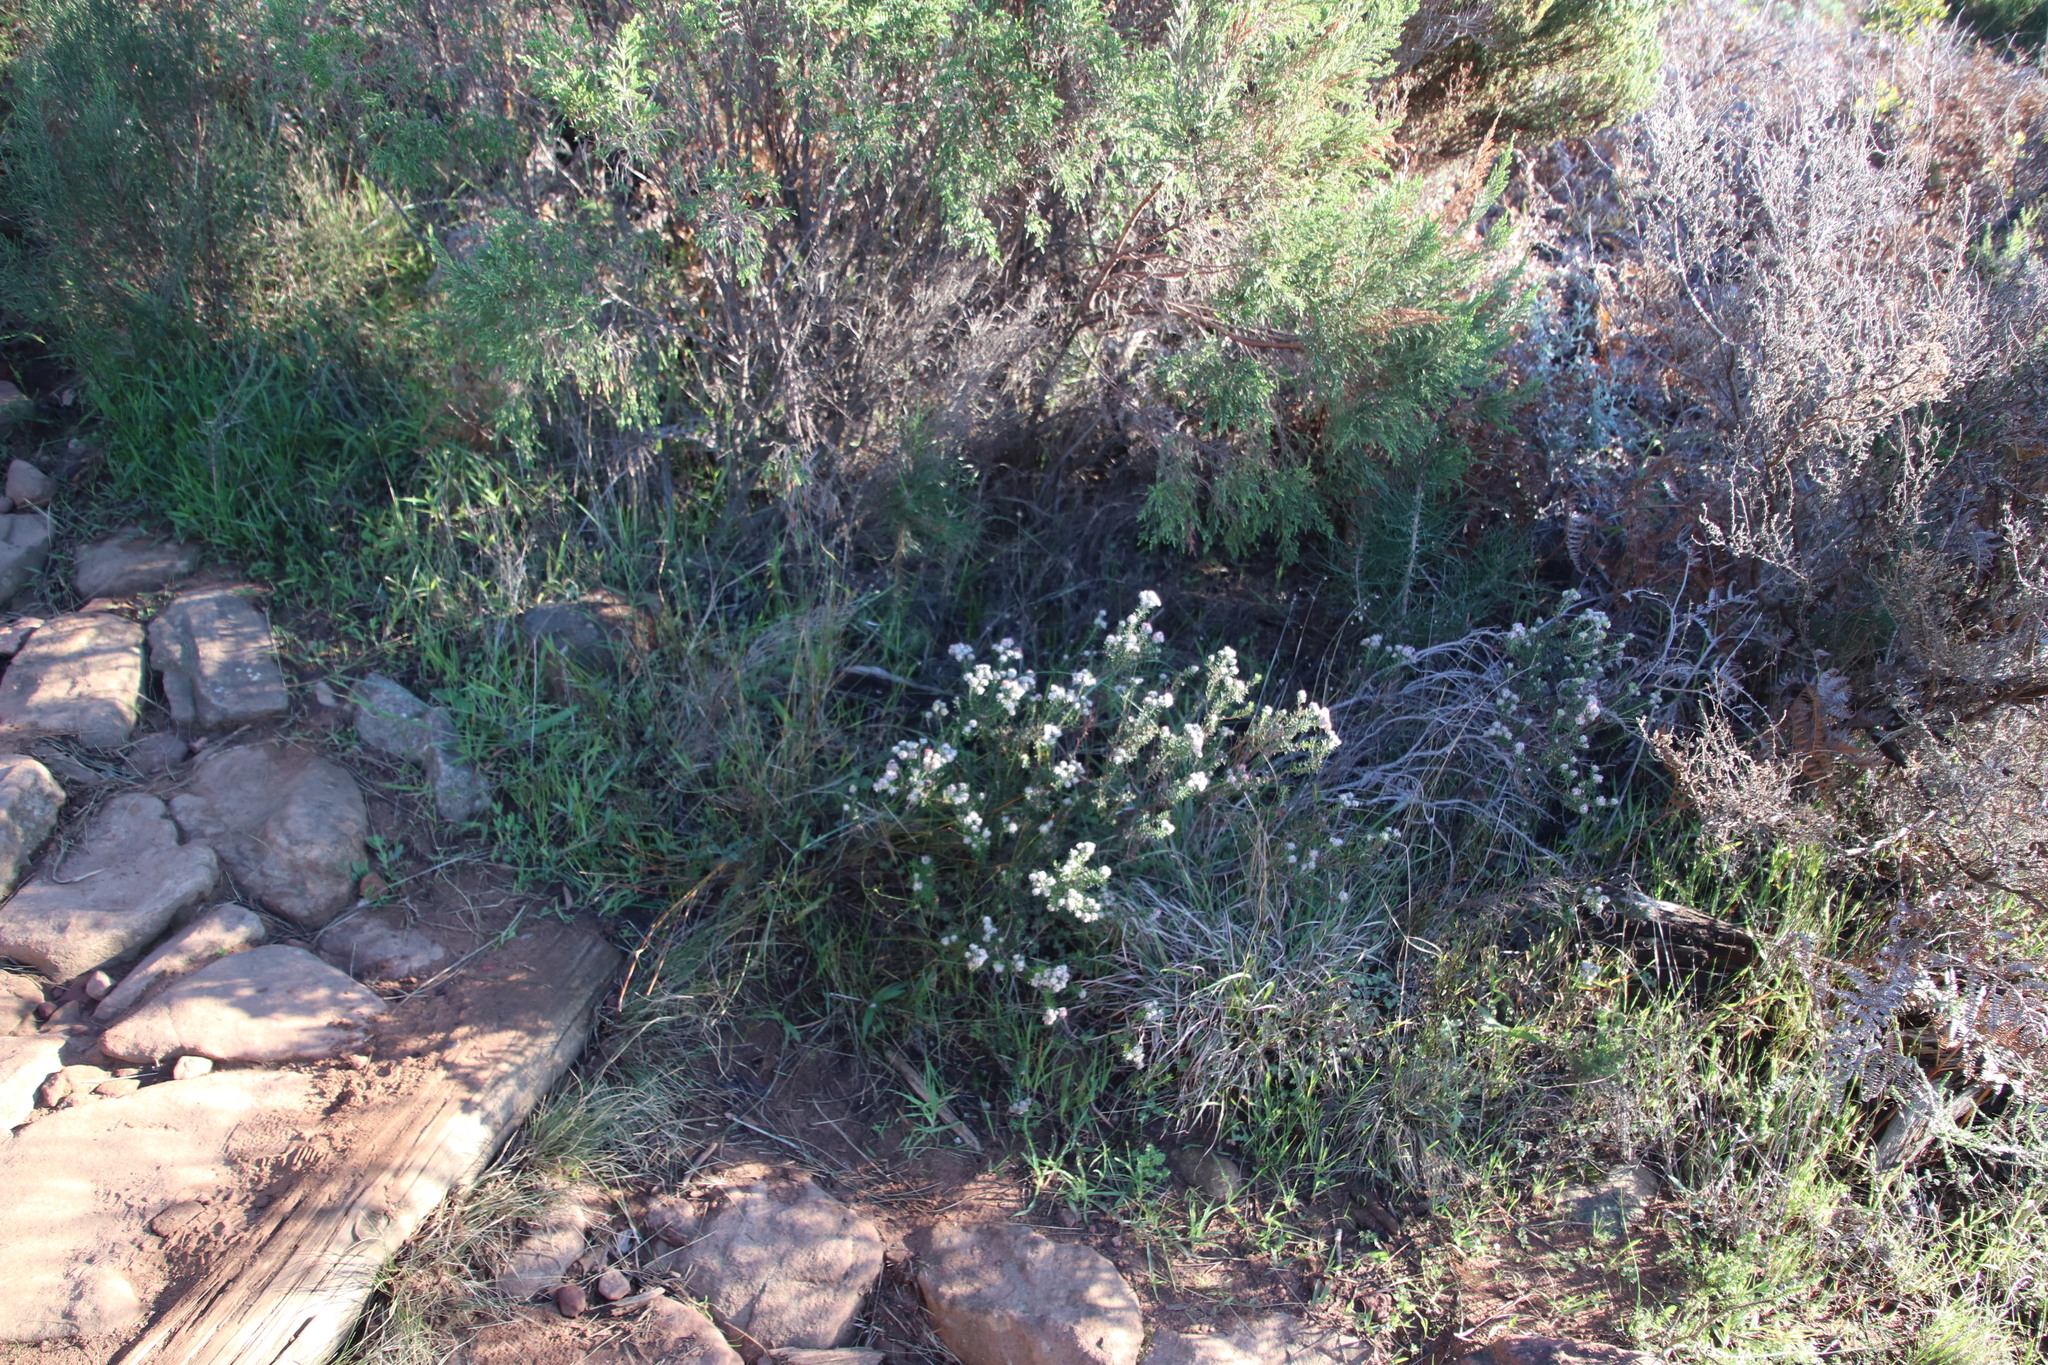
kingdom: Plantae
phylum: Tracheophyta
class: Magnoliopsida
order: Rosales
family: Rhamnaceae
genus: Trichocephalus
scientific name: Trichocephalus stipularis
